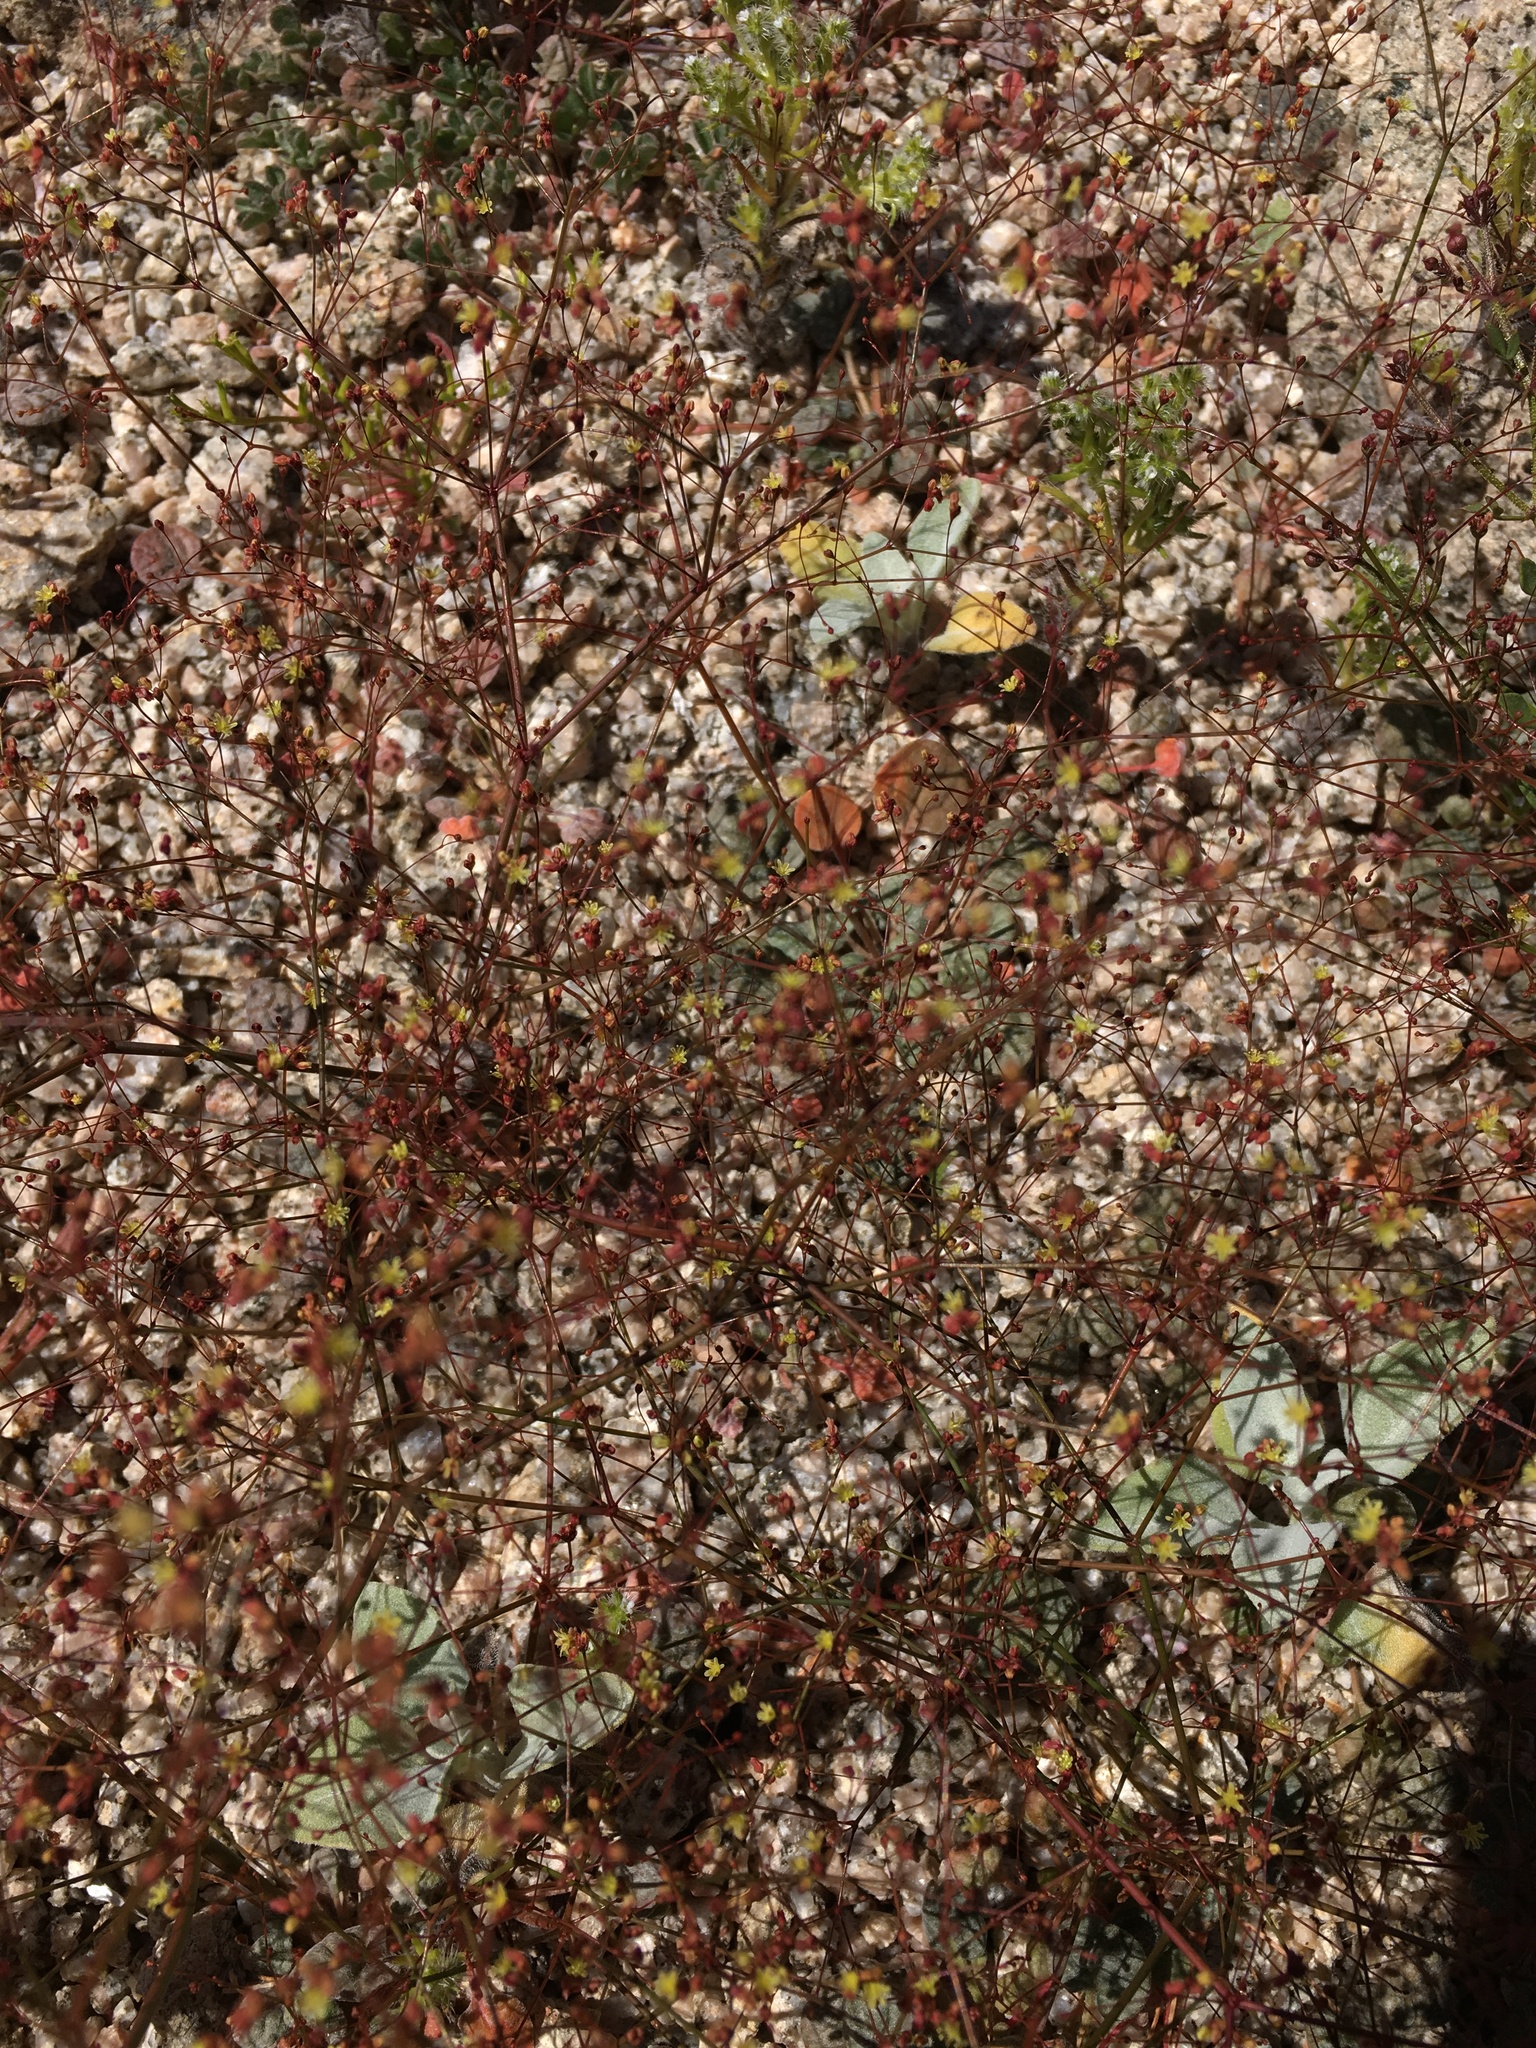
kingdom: Plantae
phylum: Tracheophyta
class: Magnoliopsida
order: Caryophyllales
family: Polygonaceae
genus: Eriogonum
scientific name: Eriogonum thomasii
